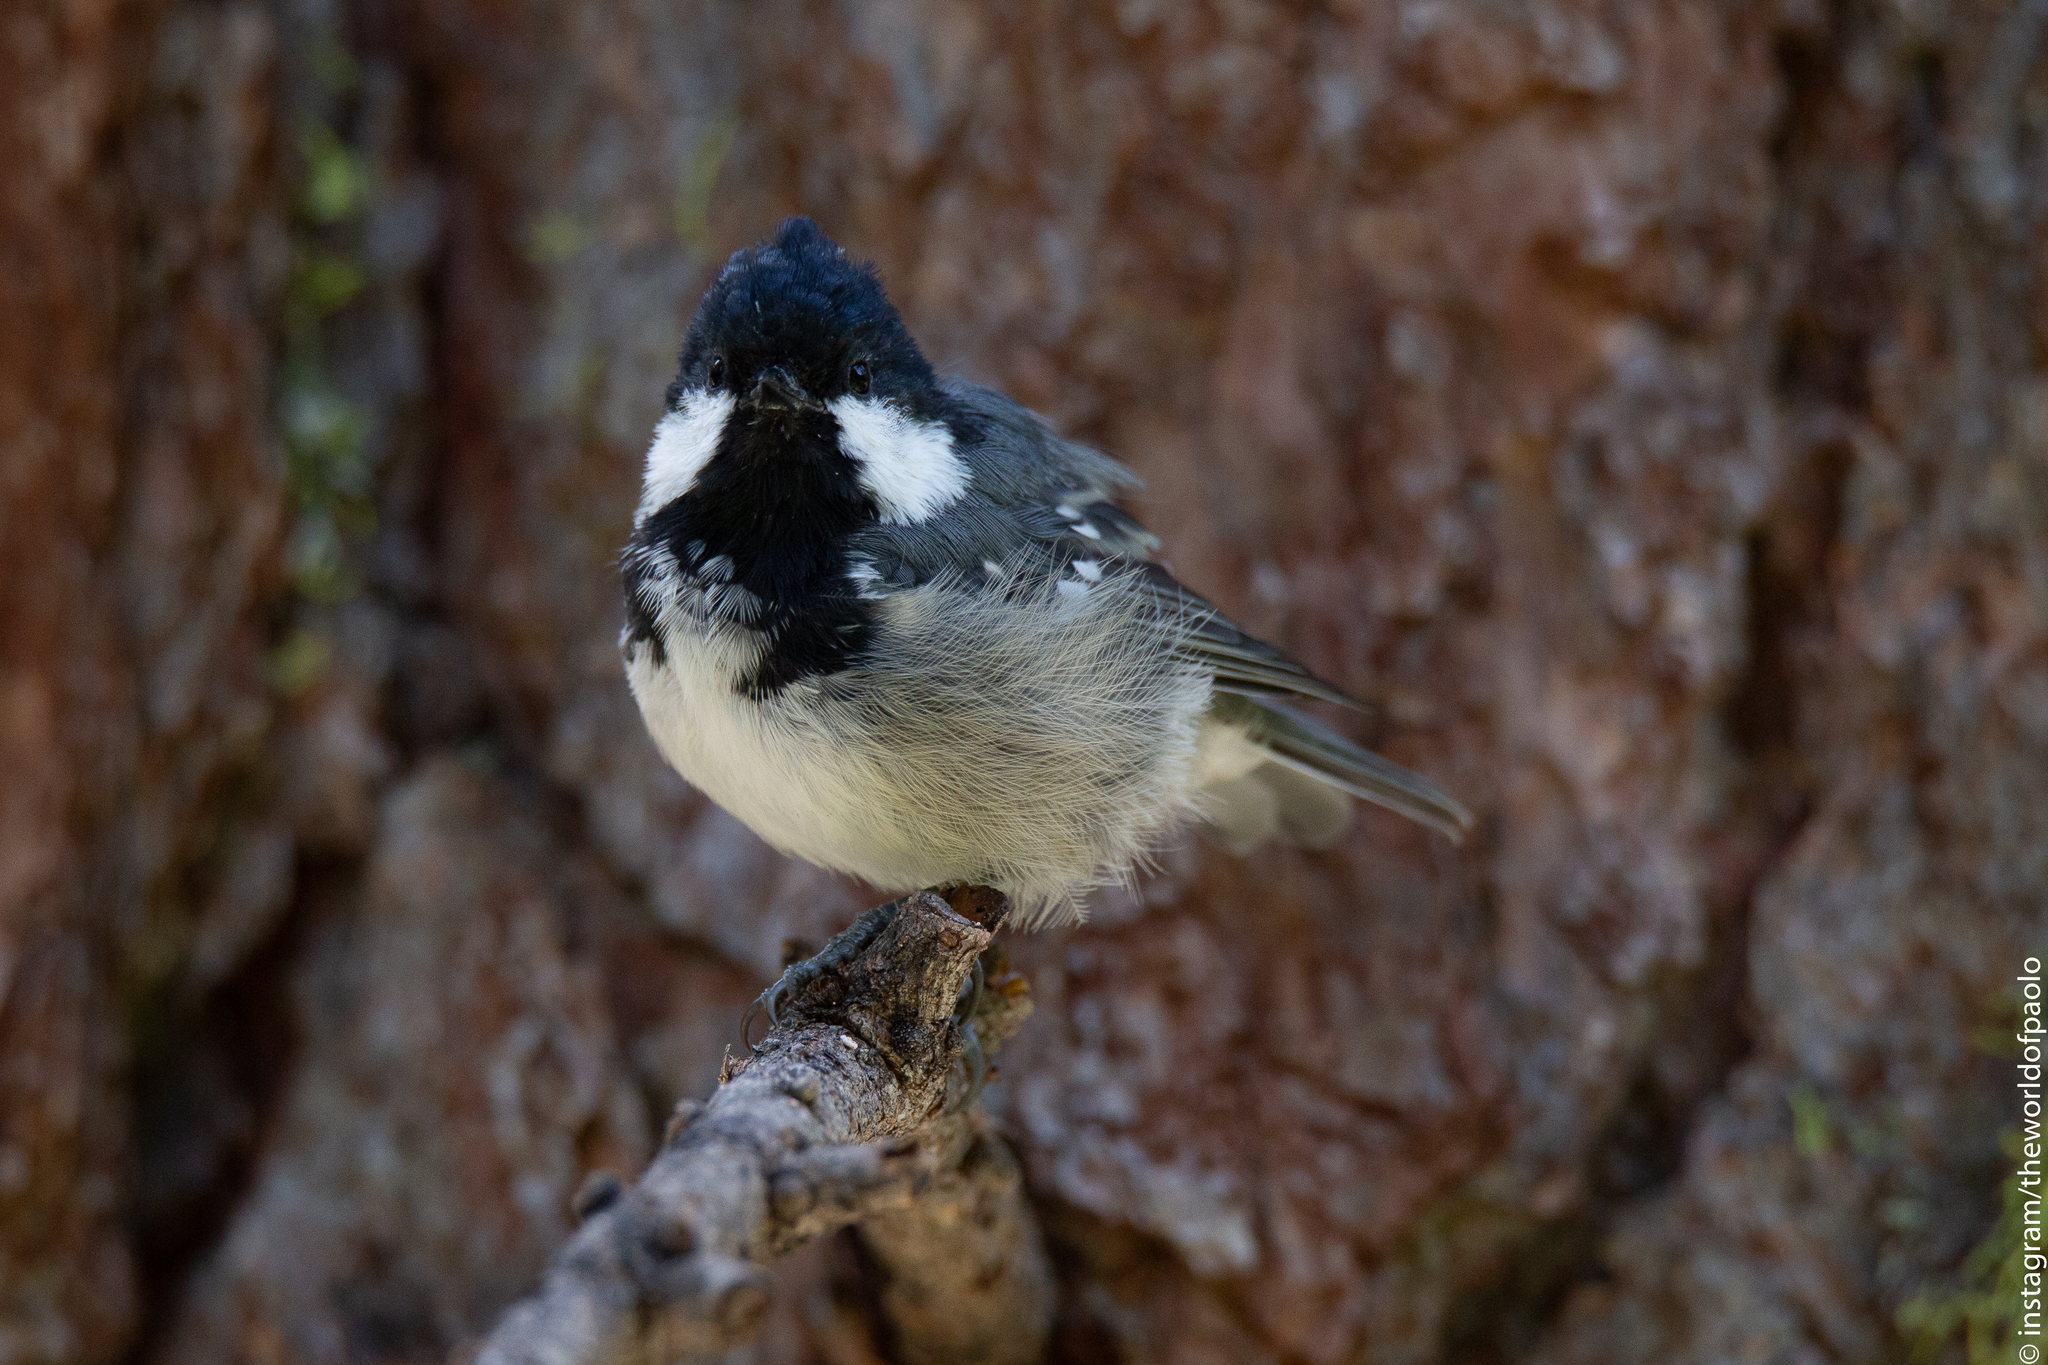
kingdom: Animalia
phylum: Chordata
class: Aves
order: Passeriformes
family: Paridae
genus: Periparus
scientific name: Periparus ater
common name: Coal tit
